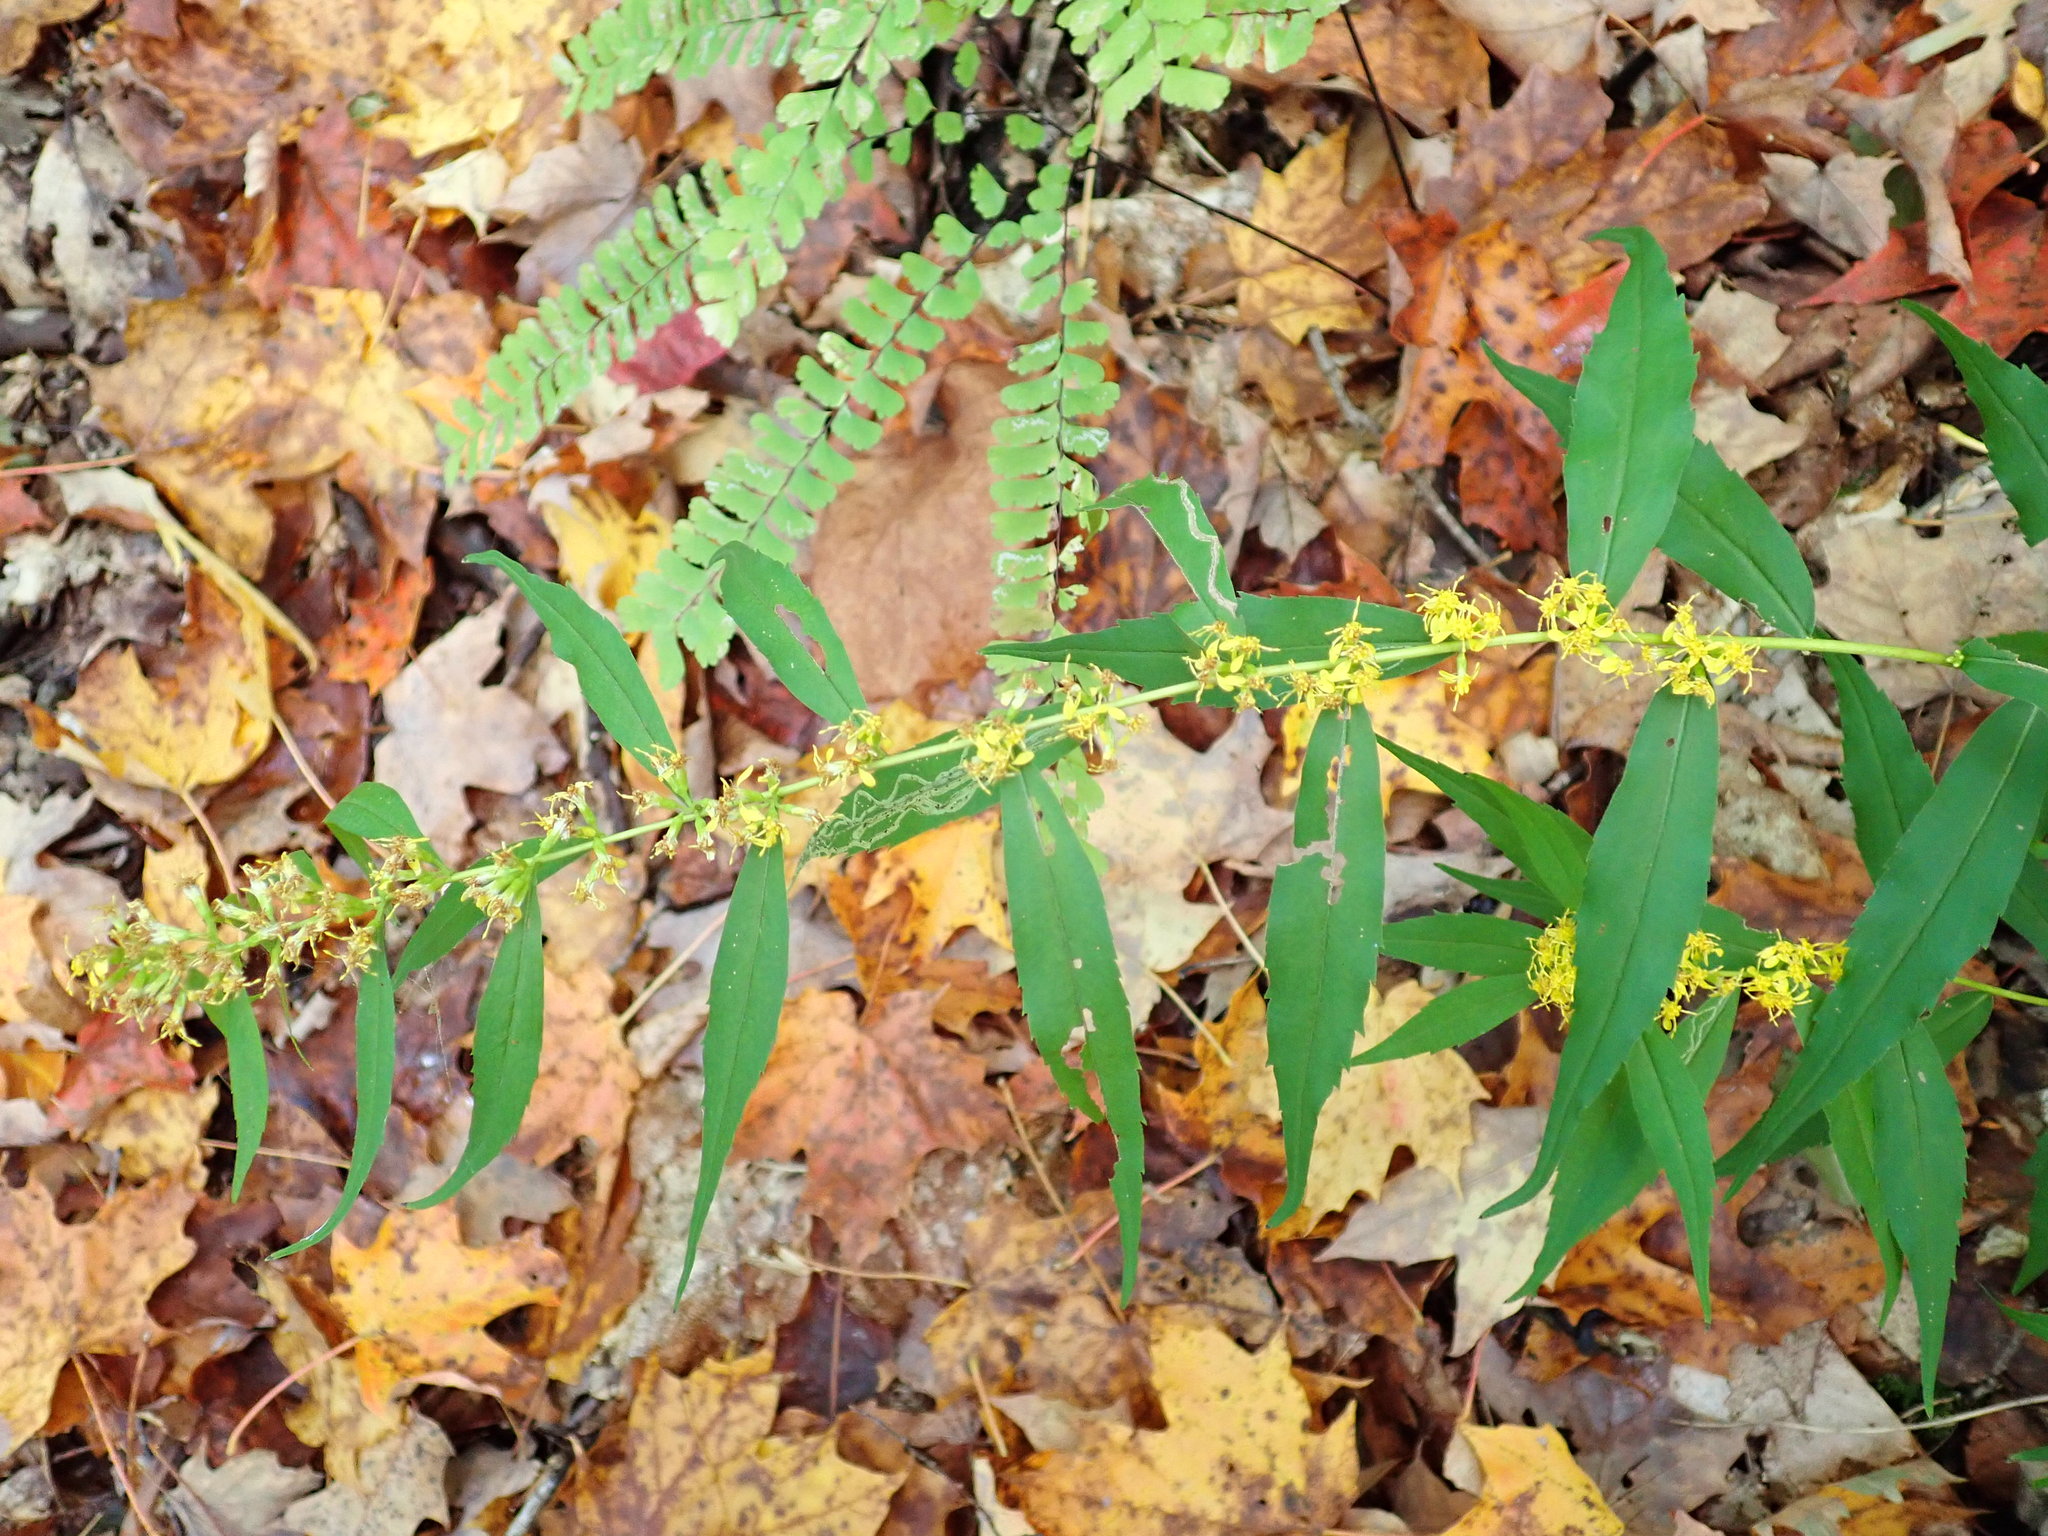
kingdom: Plantae
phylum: Tracheophyta
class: Magnoliopsida
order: Asterales
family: Asteraceae
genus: Solidago
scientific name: Solidago caesia
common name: Woodland goldenrod
